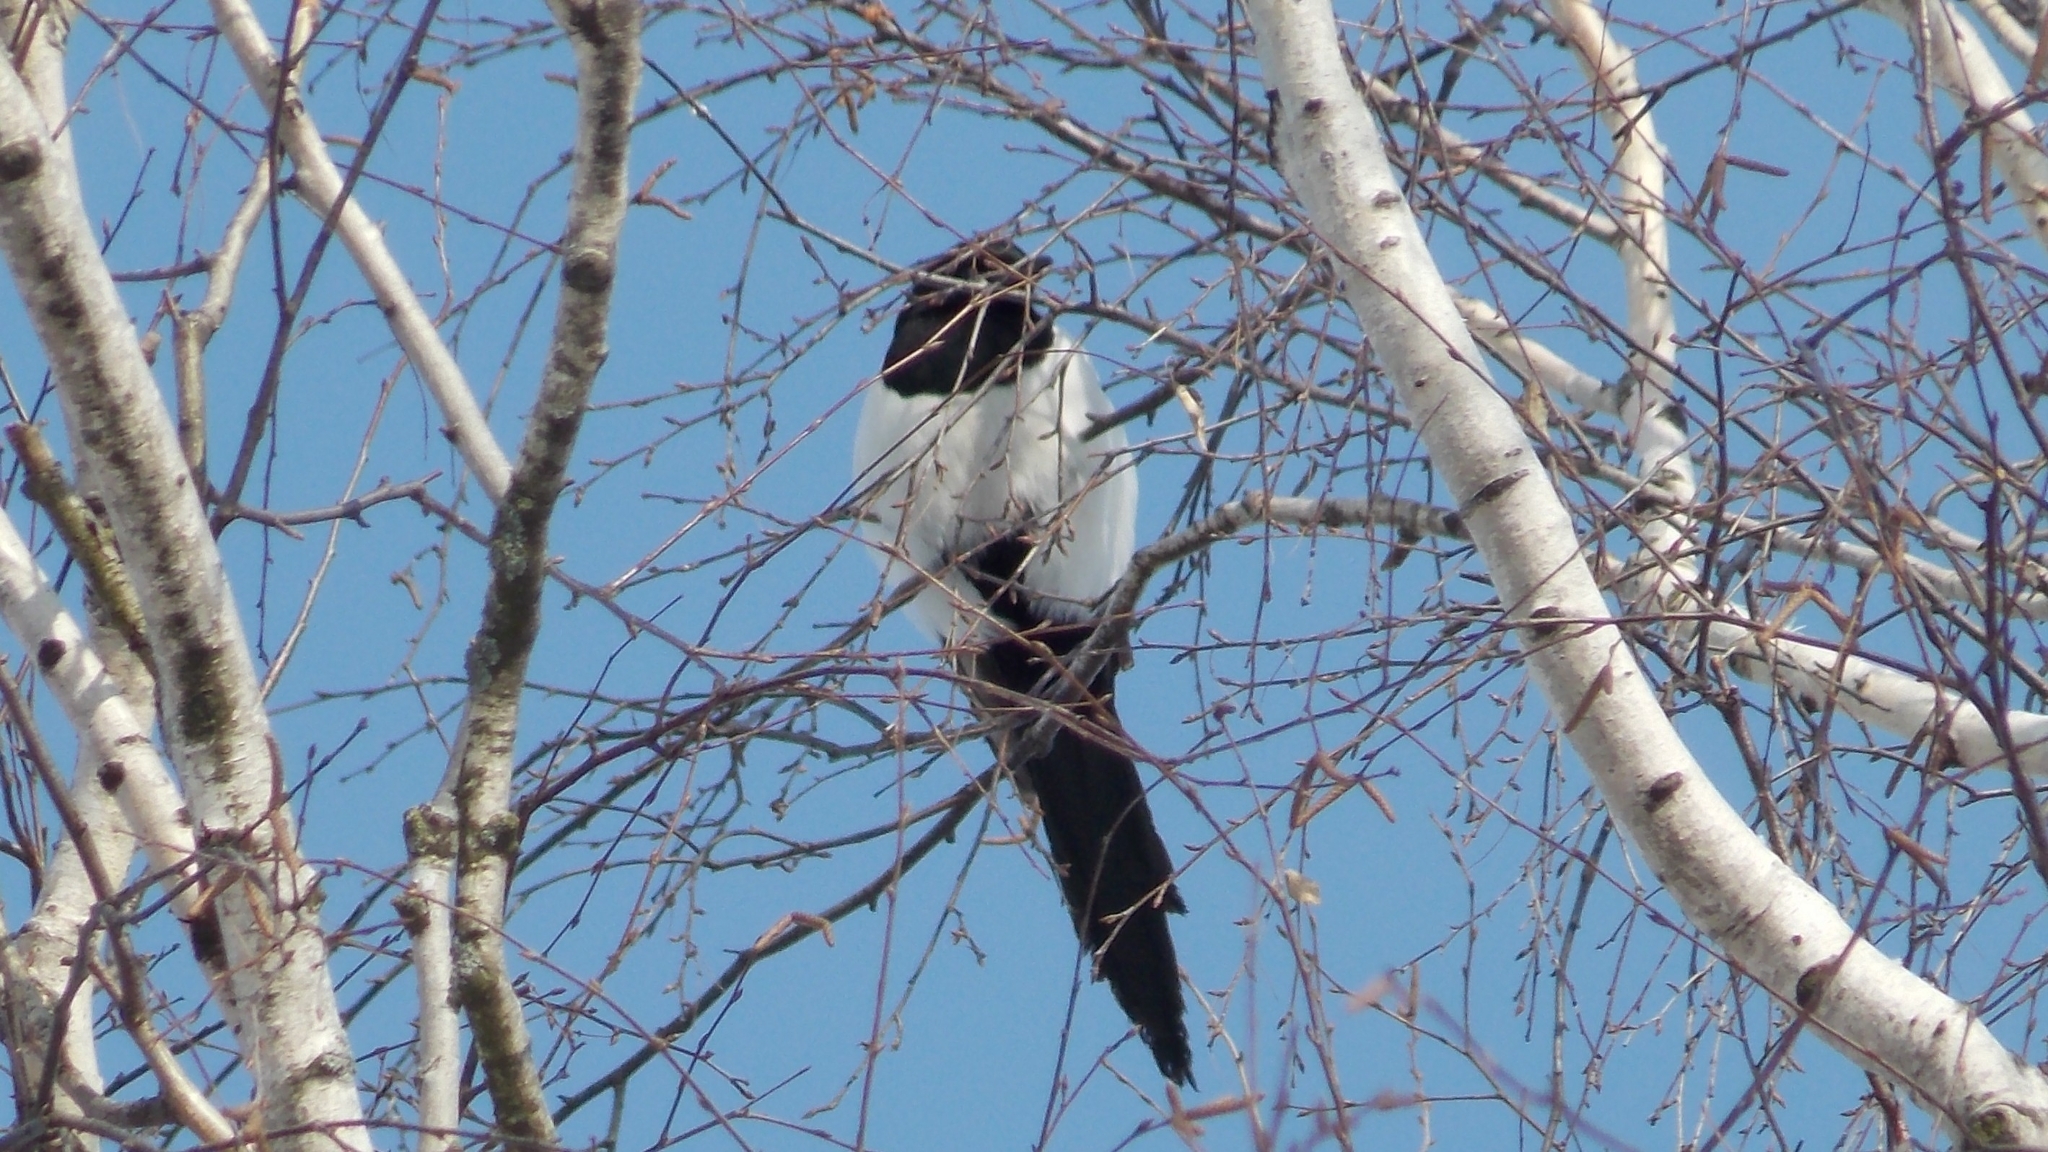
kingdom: Animalia
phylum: Chordata
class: Aves
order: Passeriformes
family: Corvidae
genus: Pica
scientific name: Pica pica
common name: Eurasian magpie
